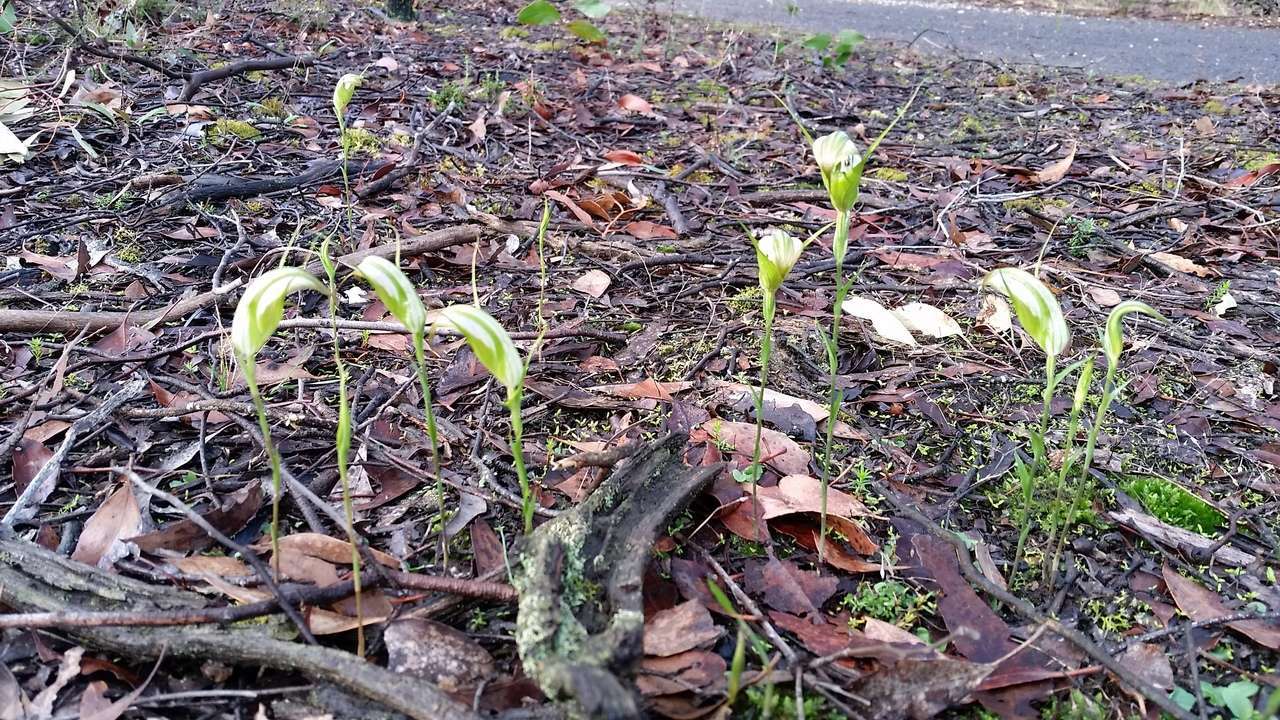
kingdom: Plantae
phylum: Tracheophyta
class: Liliopsida
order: Asparagales
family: Orchidaceae
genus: Pterostylis
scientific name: Pterostylis ampliata
